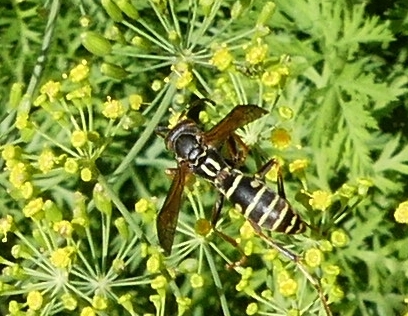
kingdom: Animalia
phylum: Arthropoda
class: Insecta
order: Hymenoptera
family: Eumenidae
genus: Polistes
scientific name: Polistes fuscatus
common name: Dark paper wasp
